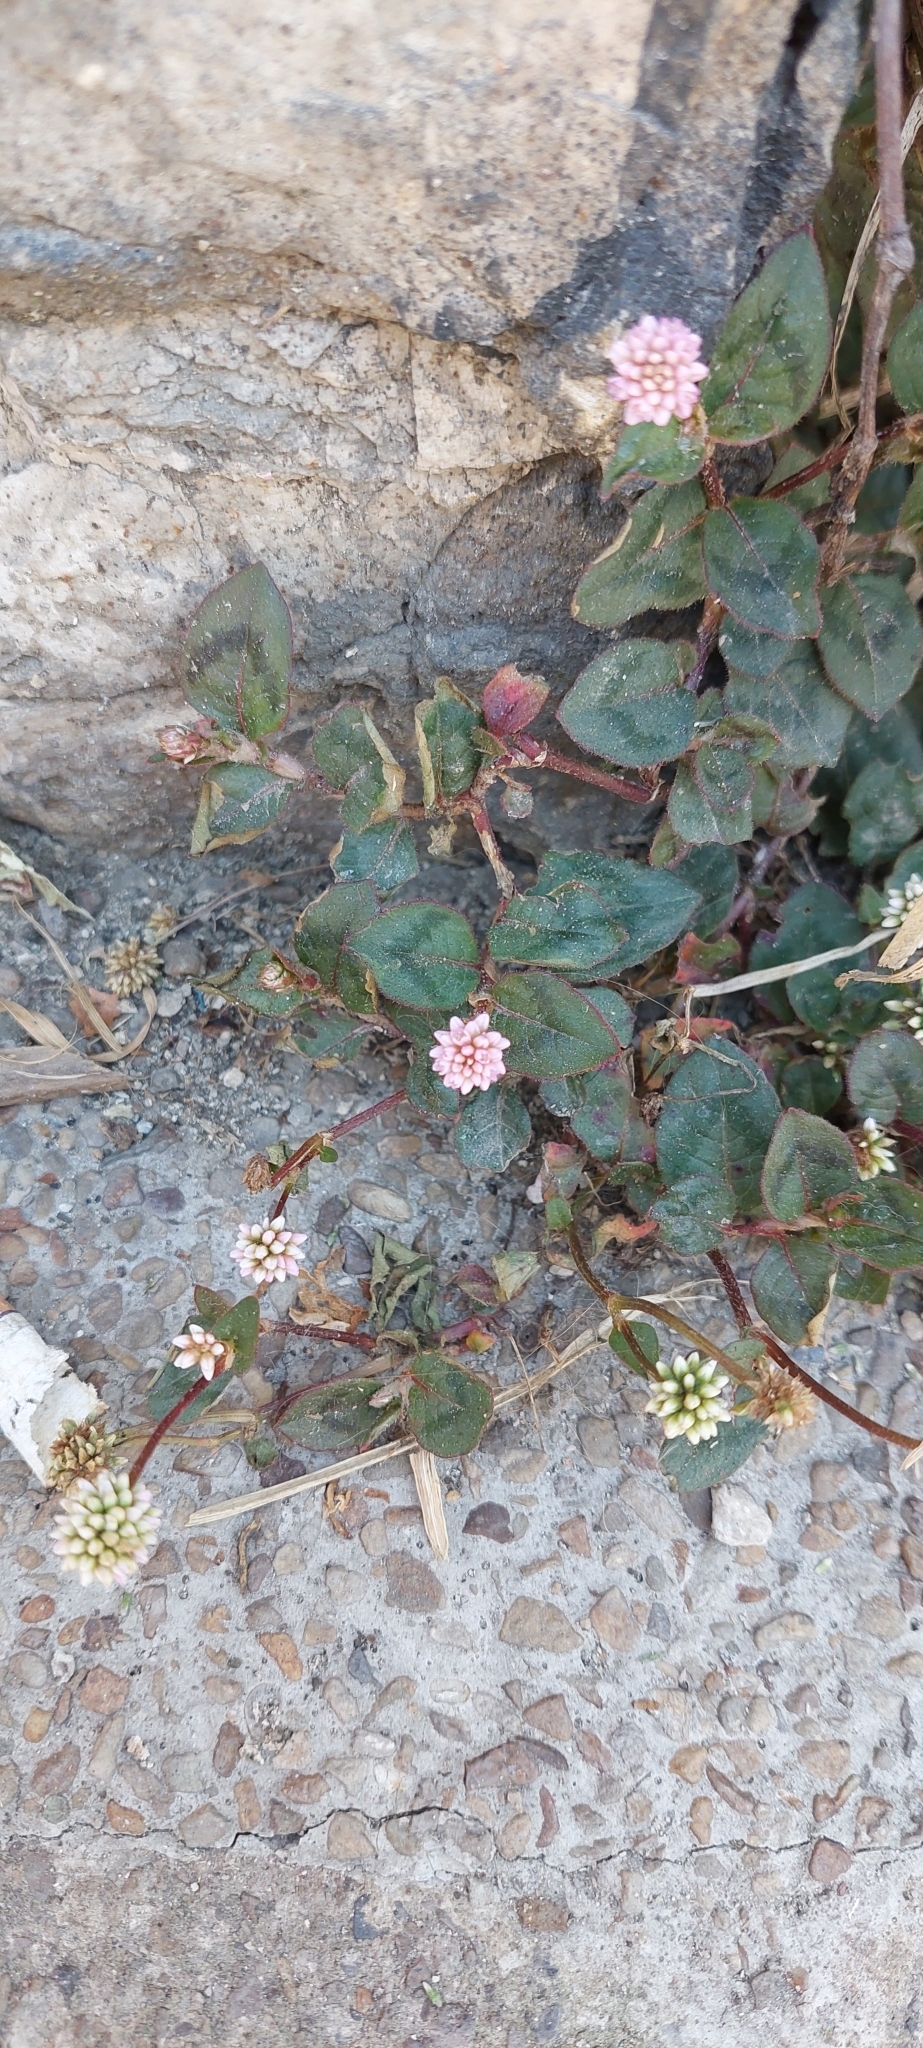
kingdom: Plantae
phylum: Tracheophyta
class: Magnoliopsida
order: Caryophyllales
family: Polygonaceae
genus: Persicaria
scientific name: Persicaria capitata
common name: Pinkhead smartweed
